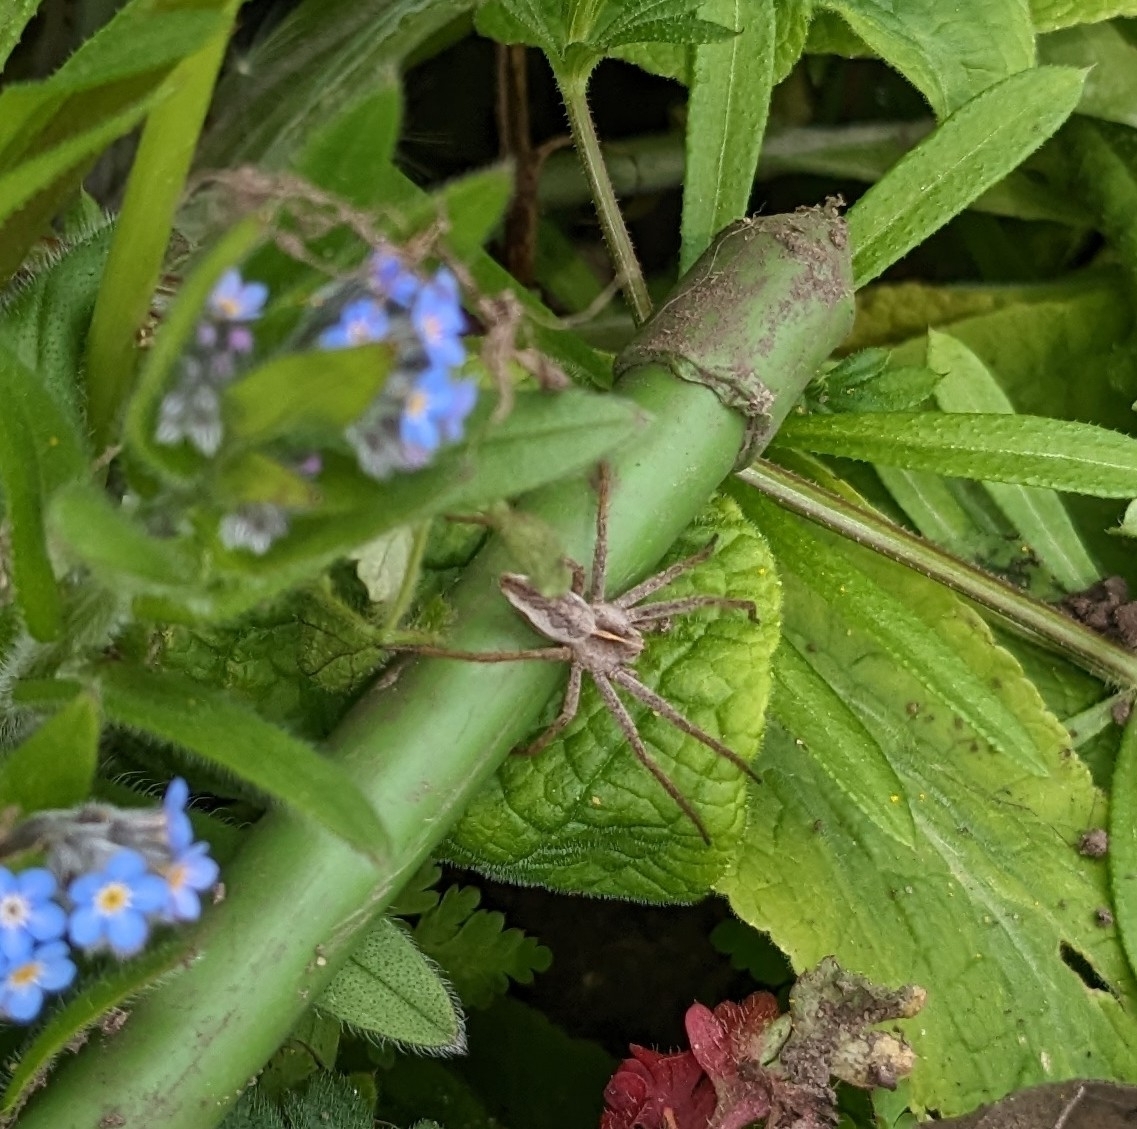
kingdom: Animalia
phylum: Arthropoda
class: Arachnida
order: Araneae
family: Pisauridae
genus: Pisaura
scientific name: Pisaura mirabilis
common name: Tent spider
